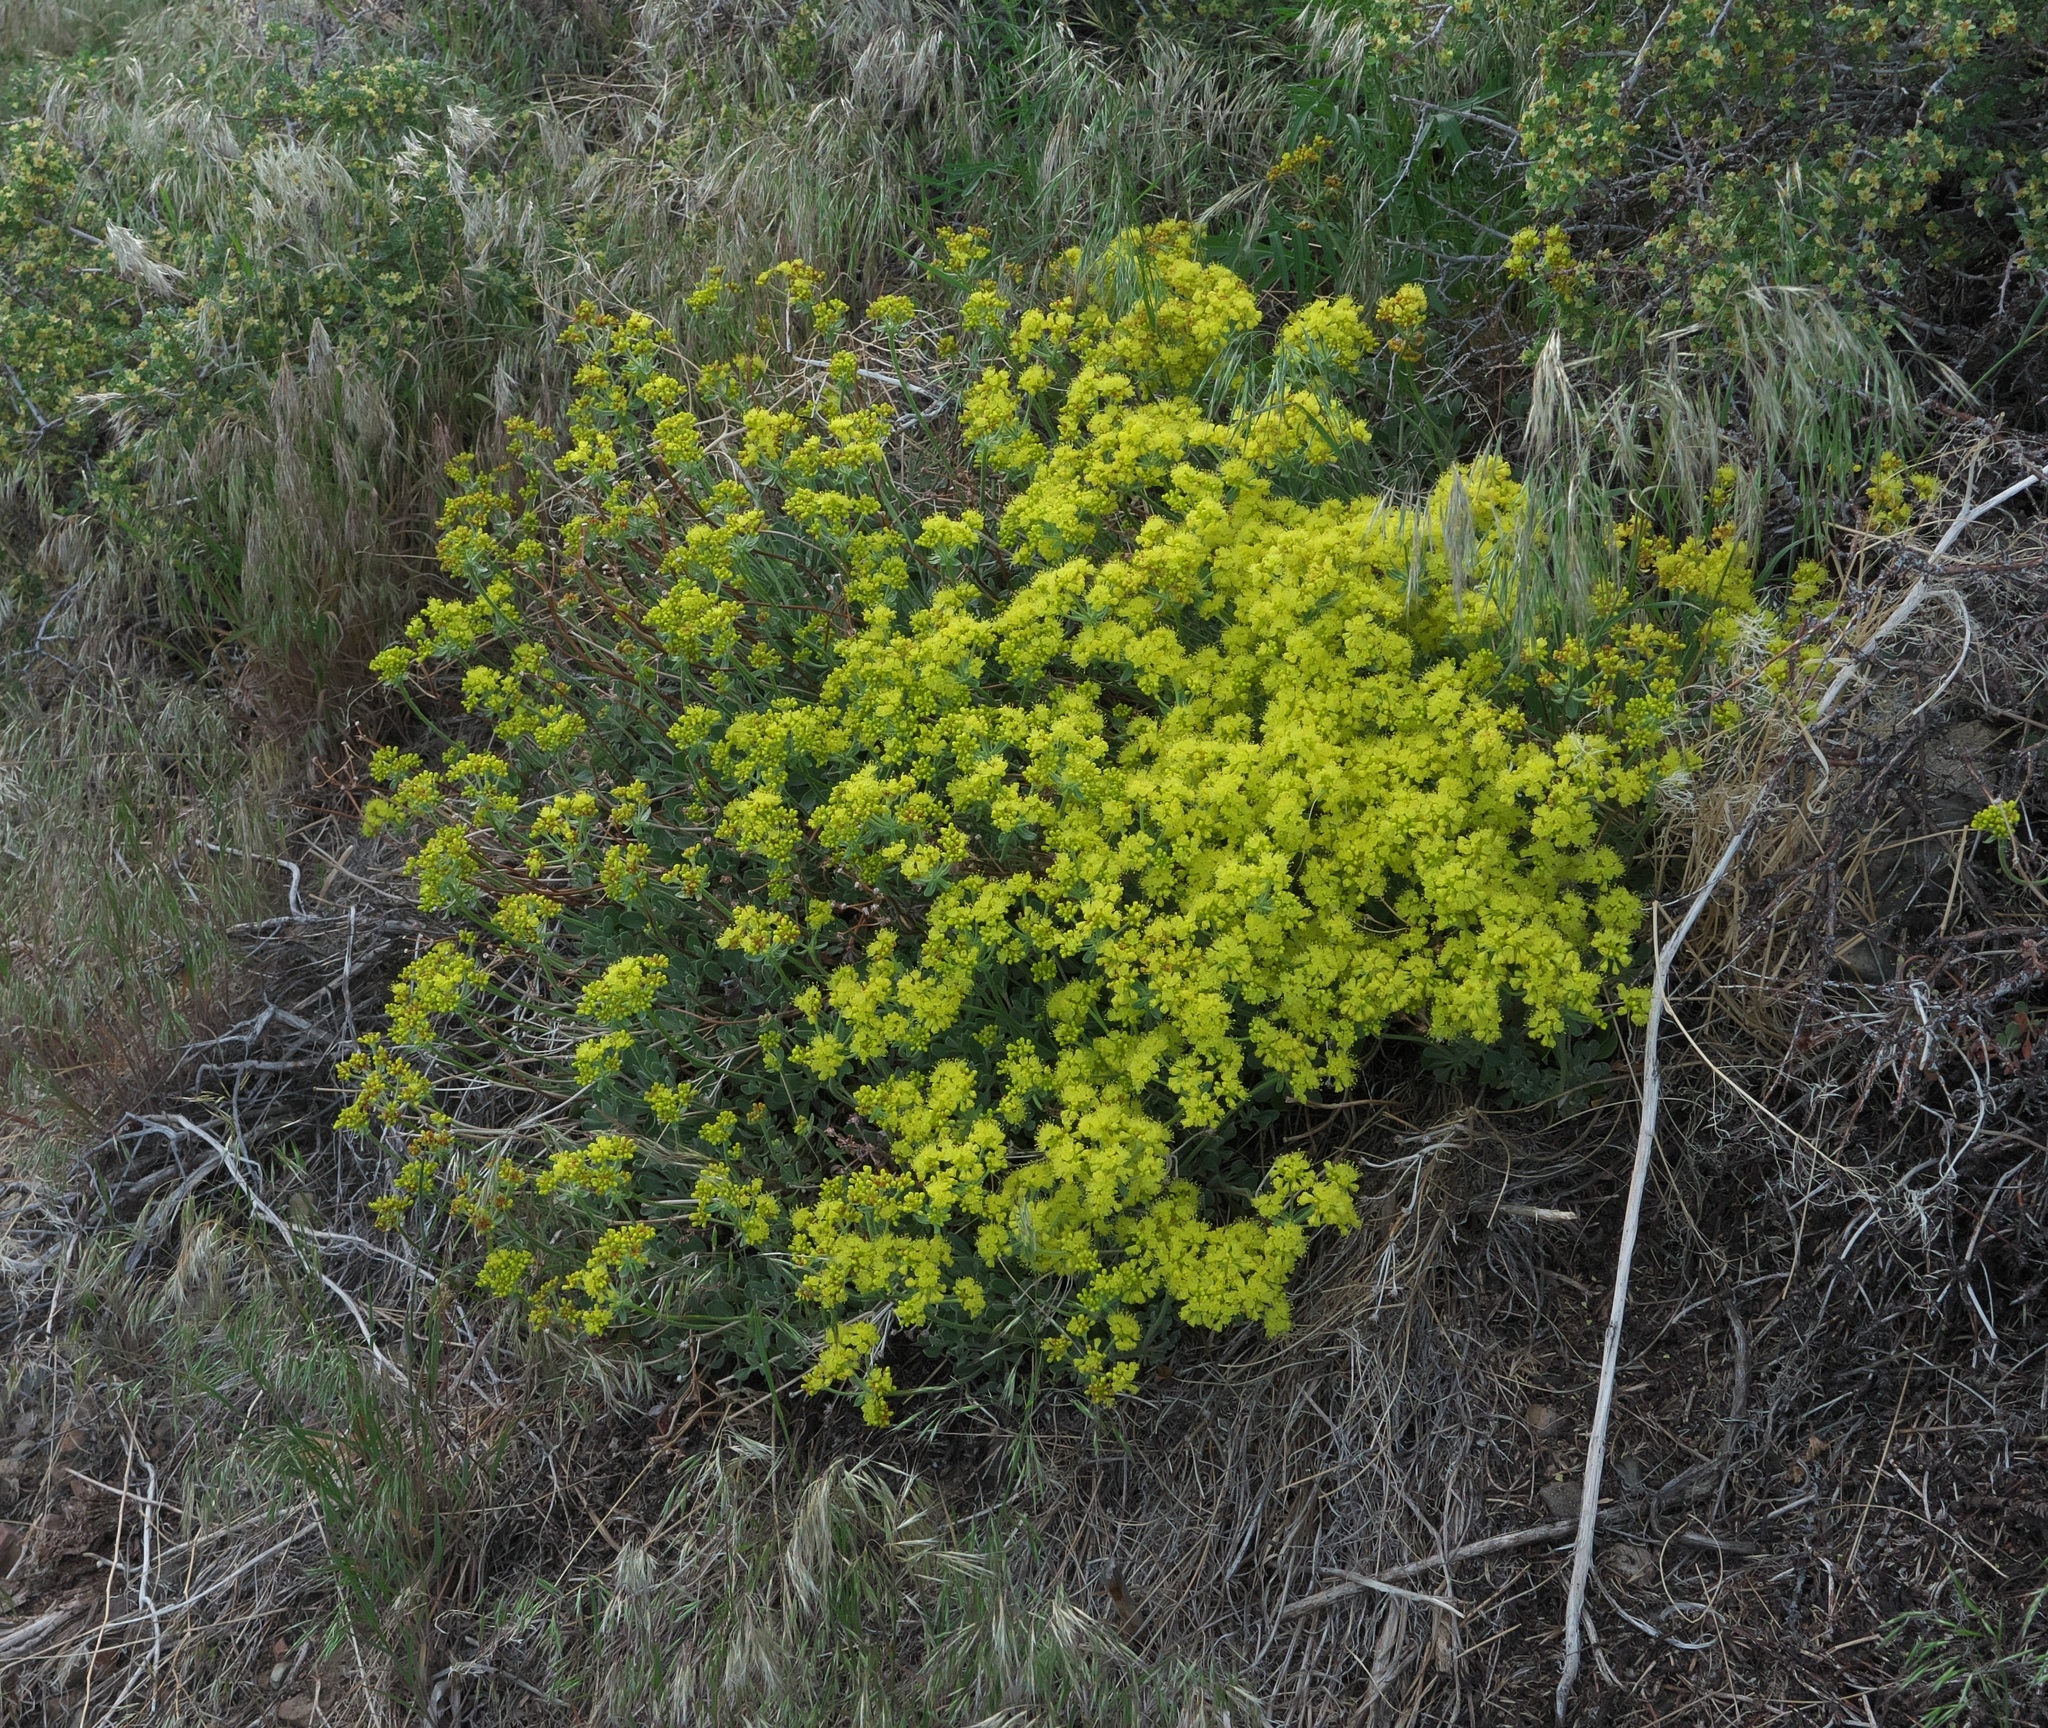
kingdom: Plantae
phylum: Tracheophyta
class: Magnoliopsida
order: Caryophyllales
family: Polygonaceae
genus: Eriogonum
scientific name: Eriogonum umbellatum
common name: Sulfur-buckwheat
